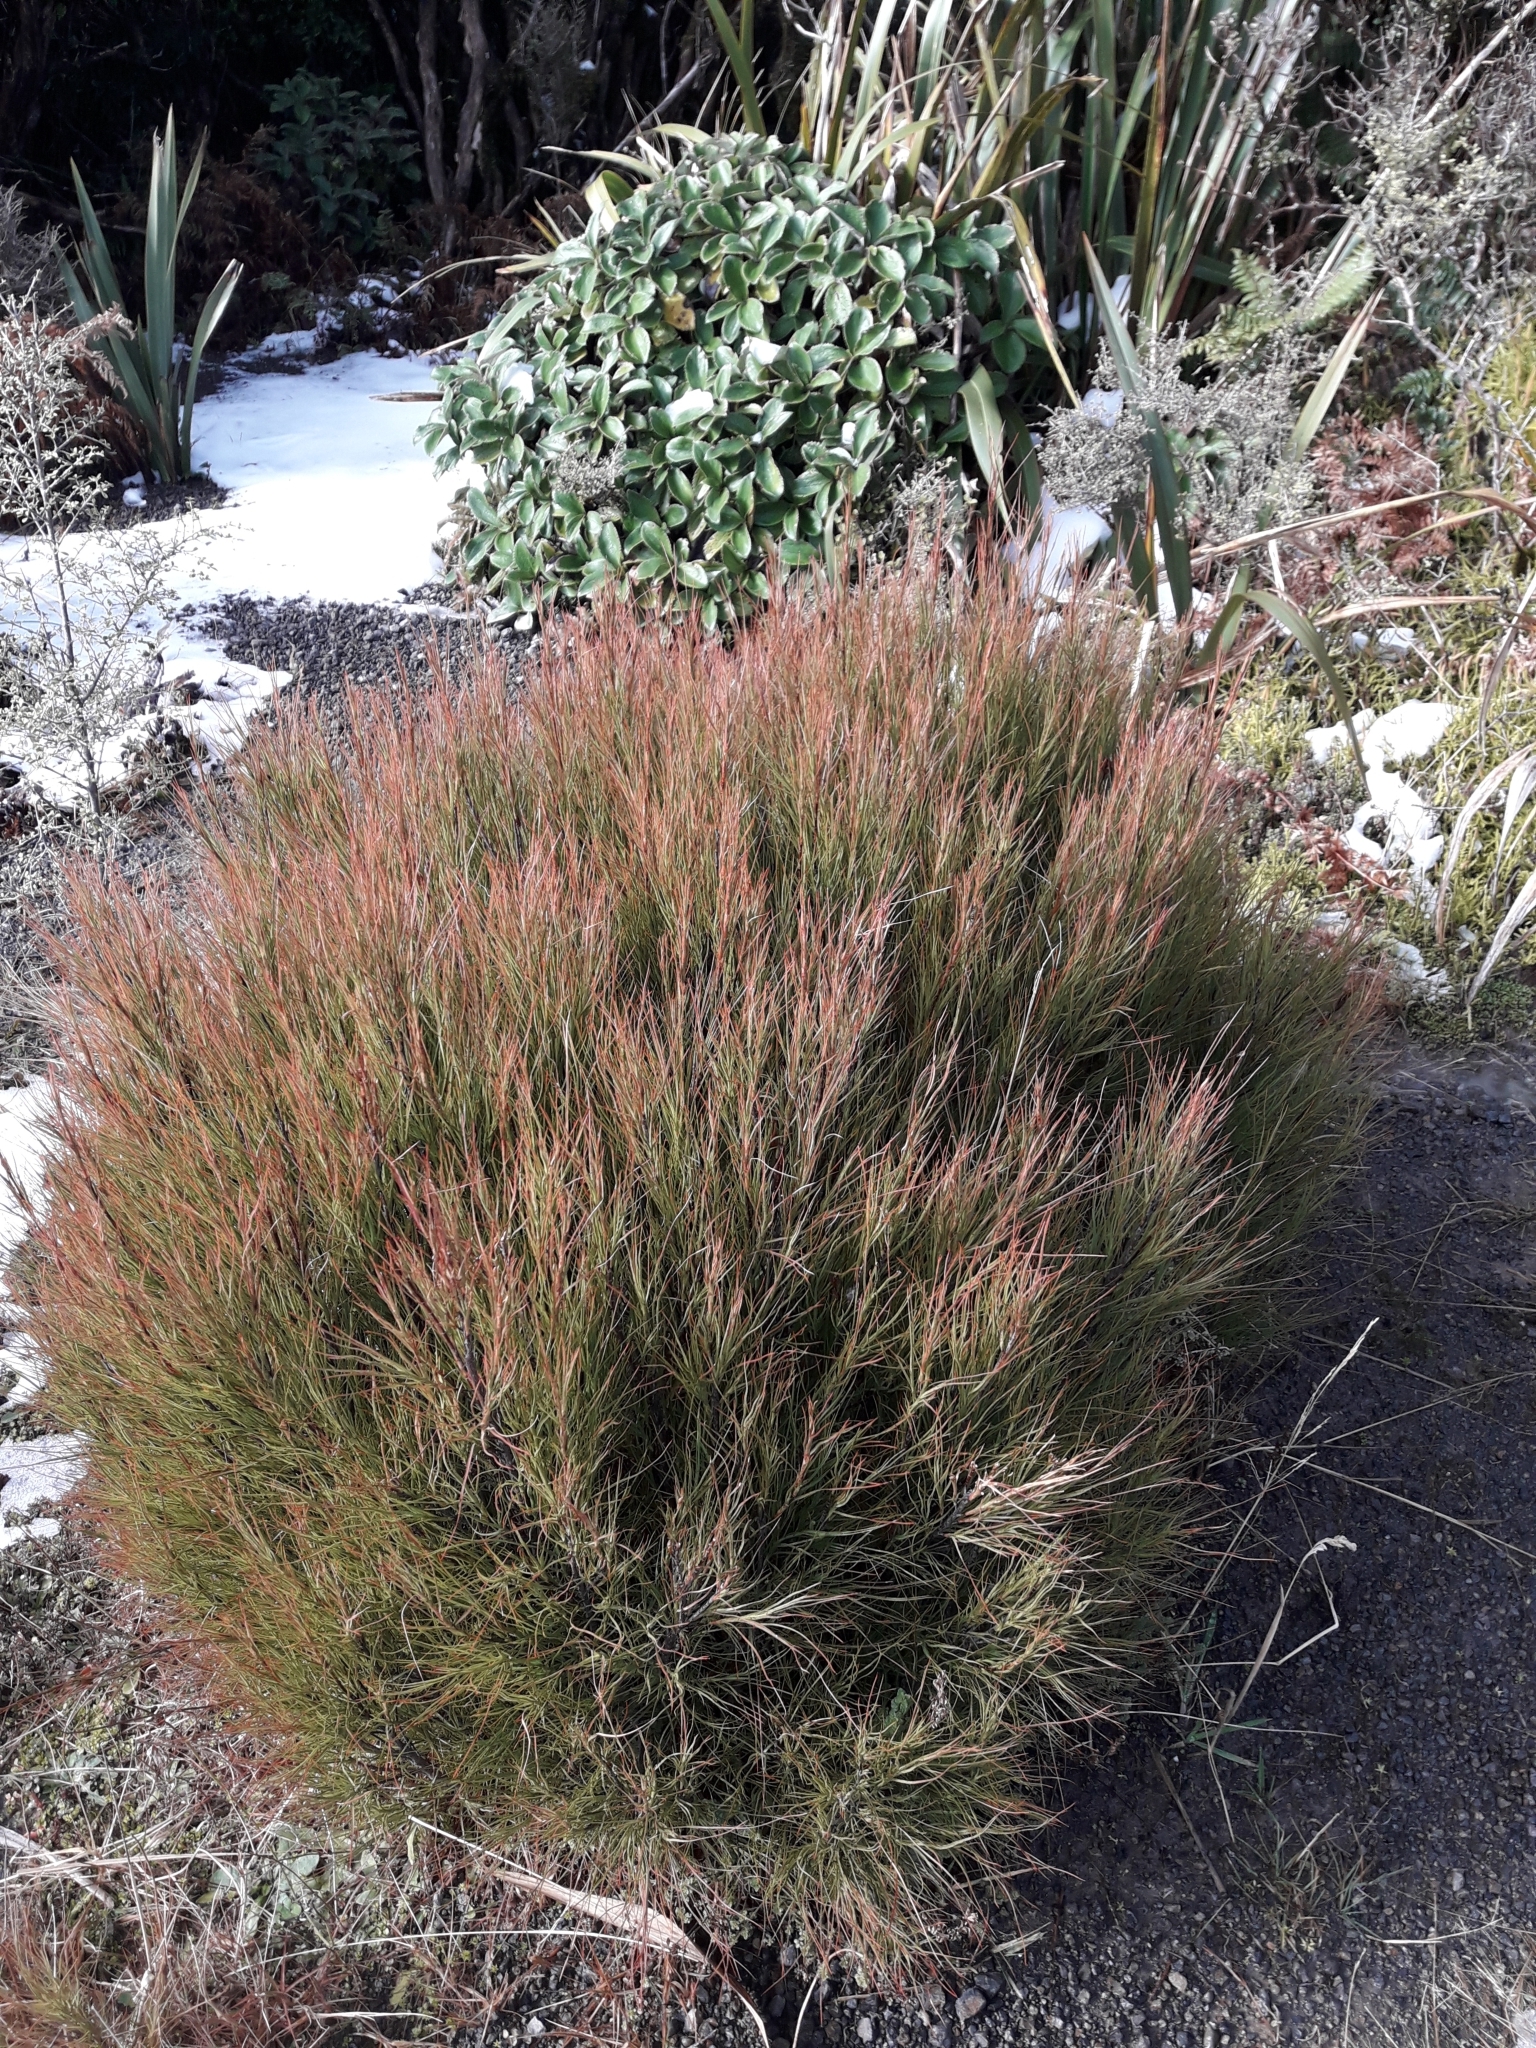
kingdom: Plantae
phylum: Tracheophyta
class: Magnoliopsida
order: Ericales
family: Ericaceae
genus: Dracophyllum
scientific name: Dracophyllum filifolium
